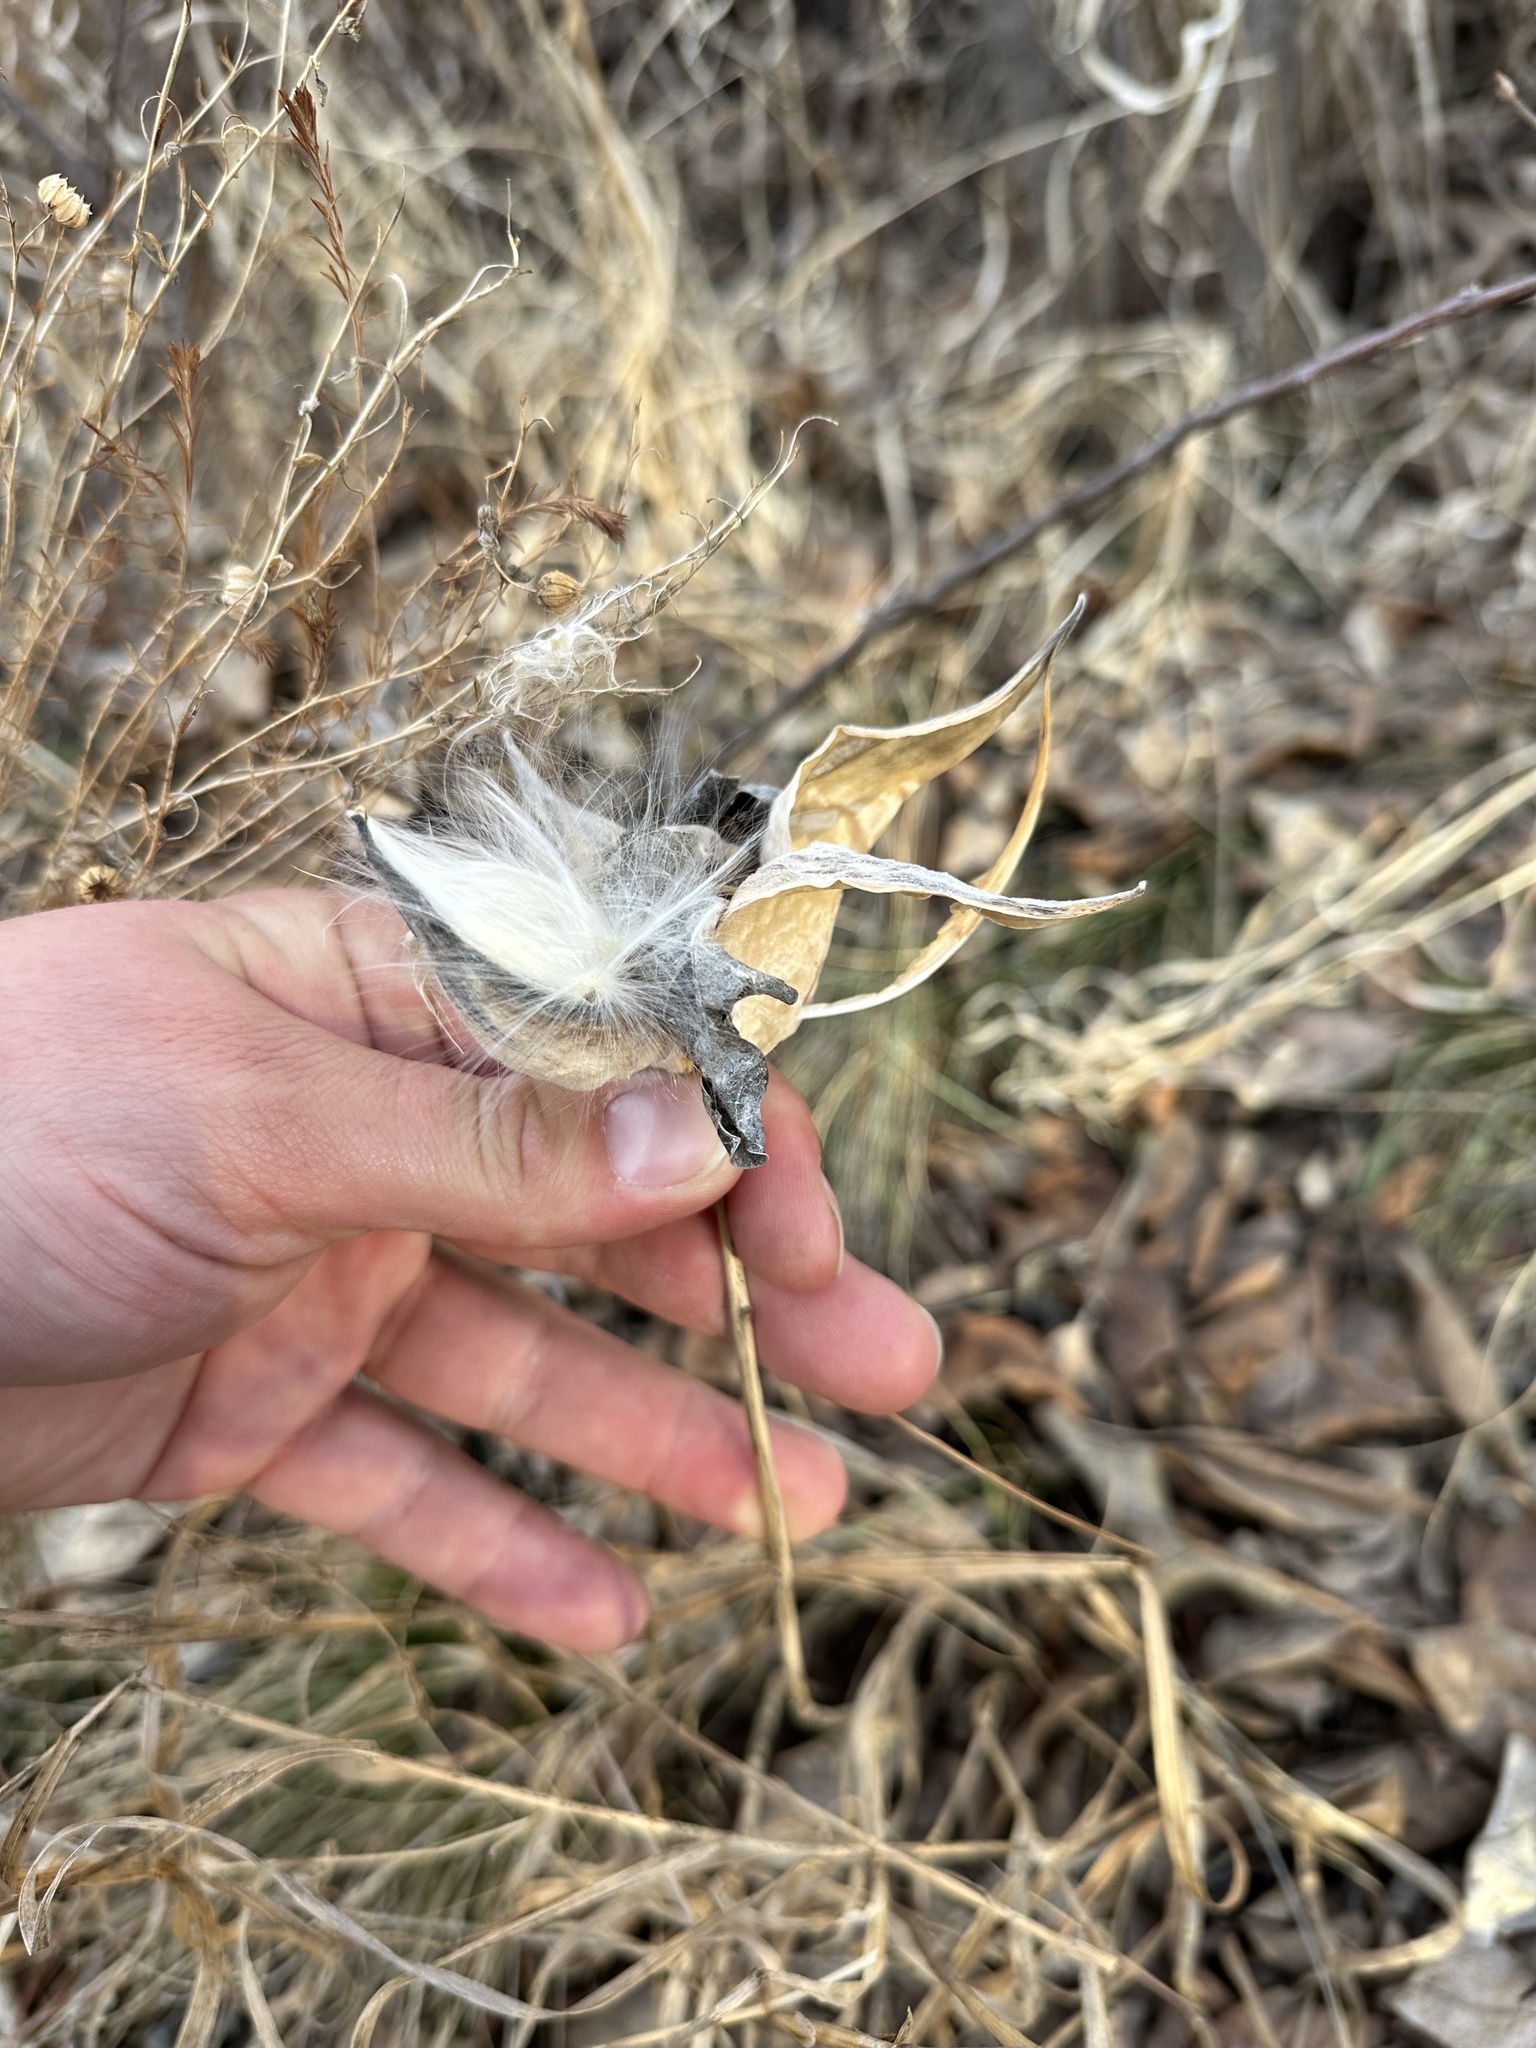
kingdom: Plantae
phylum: Tracheophyta
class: Magnoliopsida
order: Gentianales
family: Apocynaceae
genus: Asclepias
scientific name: Asclepias ovalifolia
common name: Dwarf milkweed
